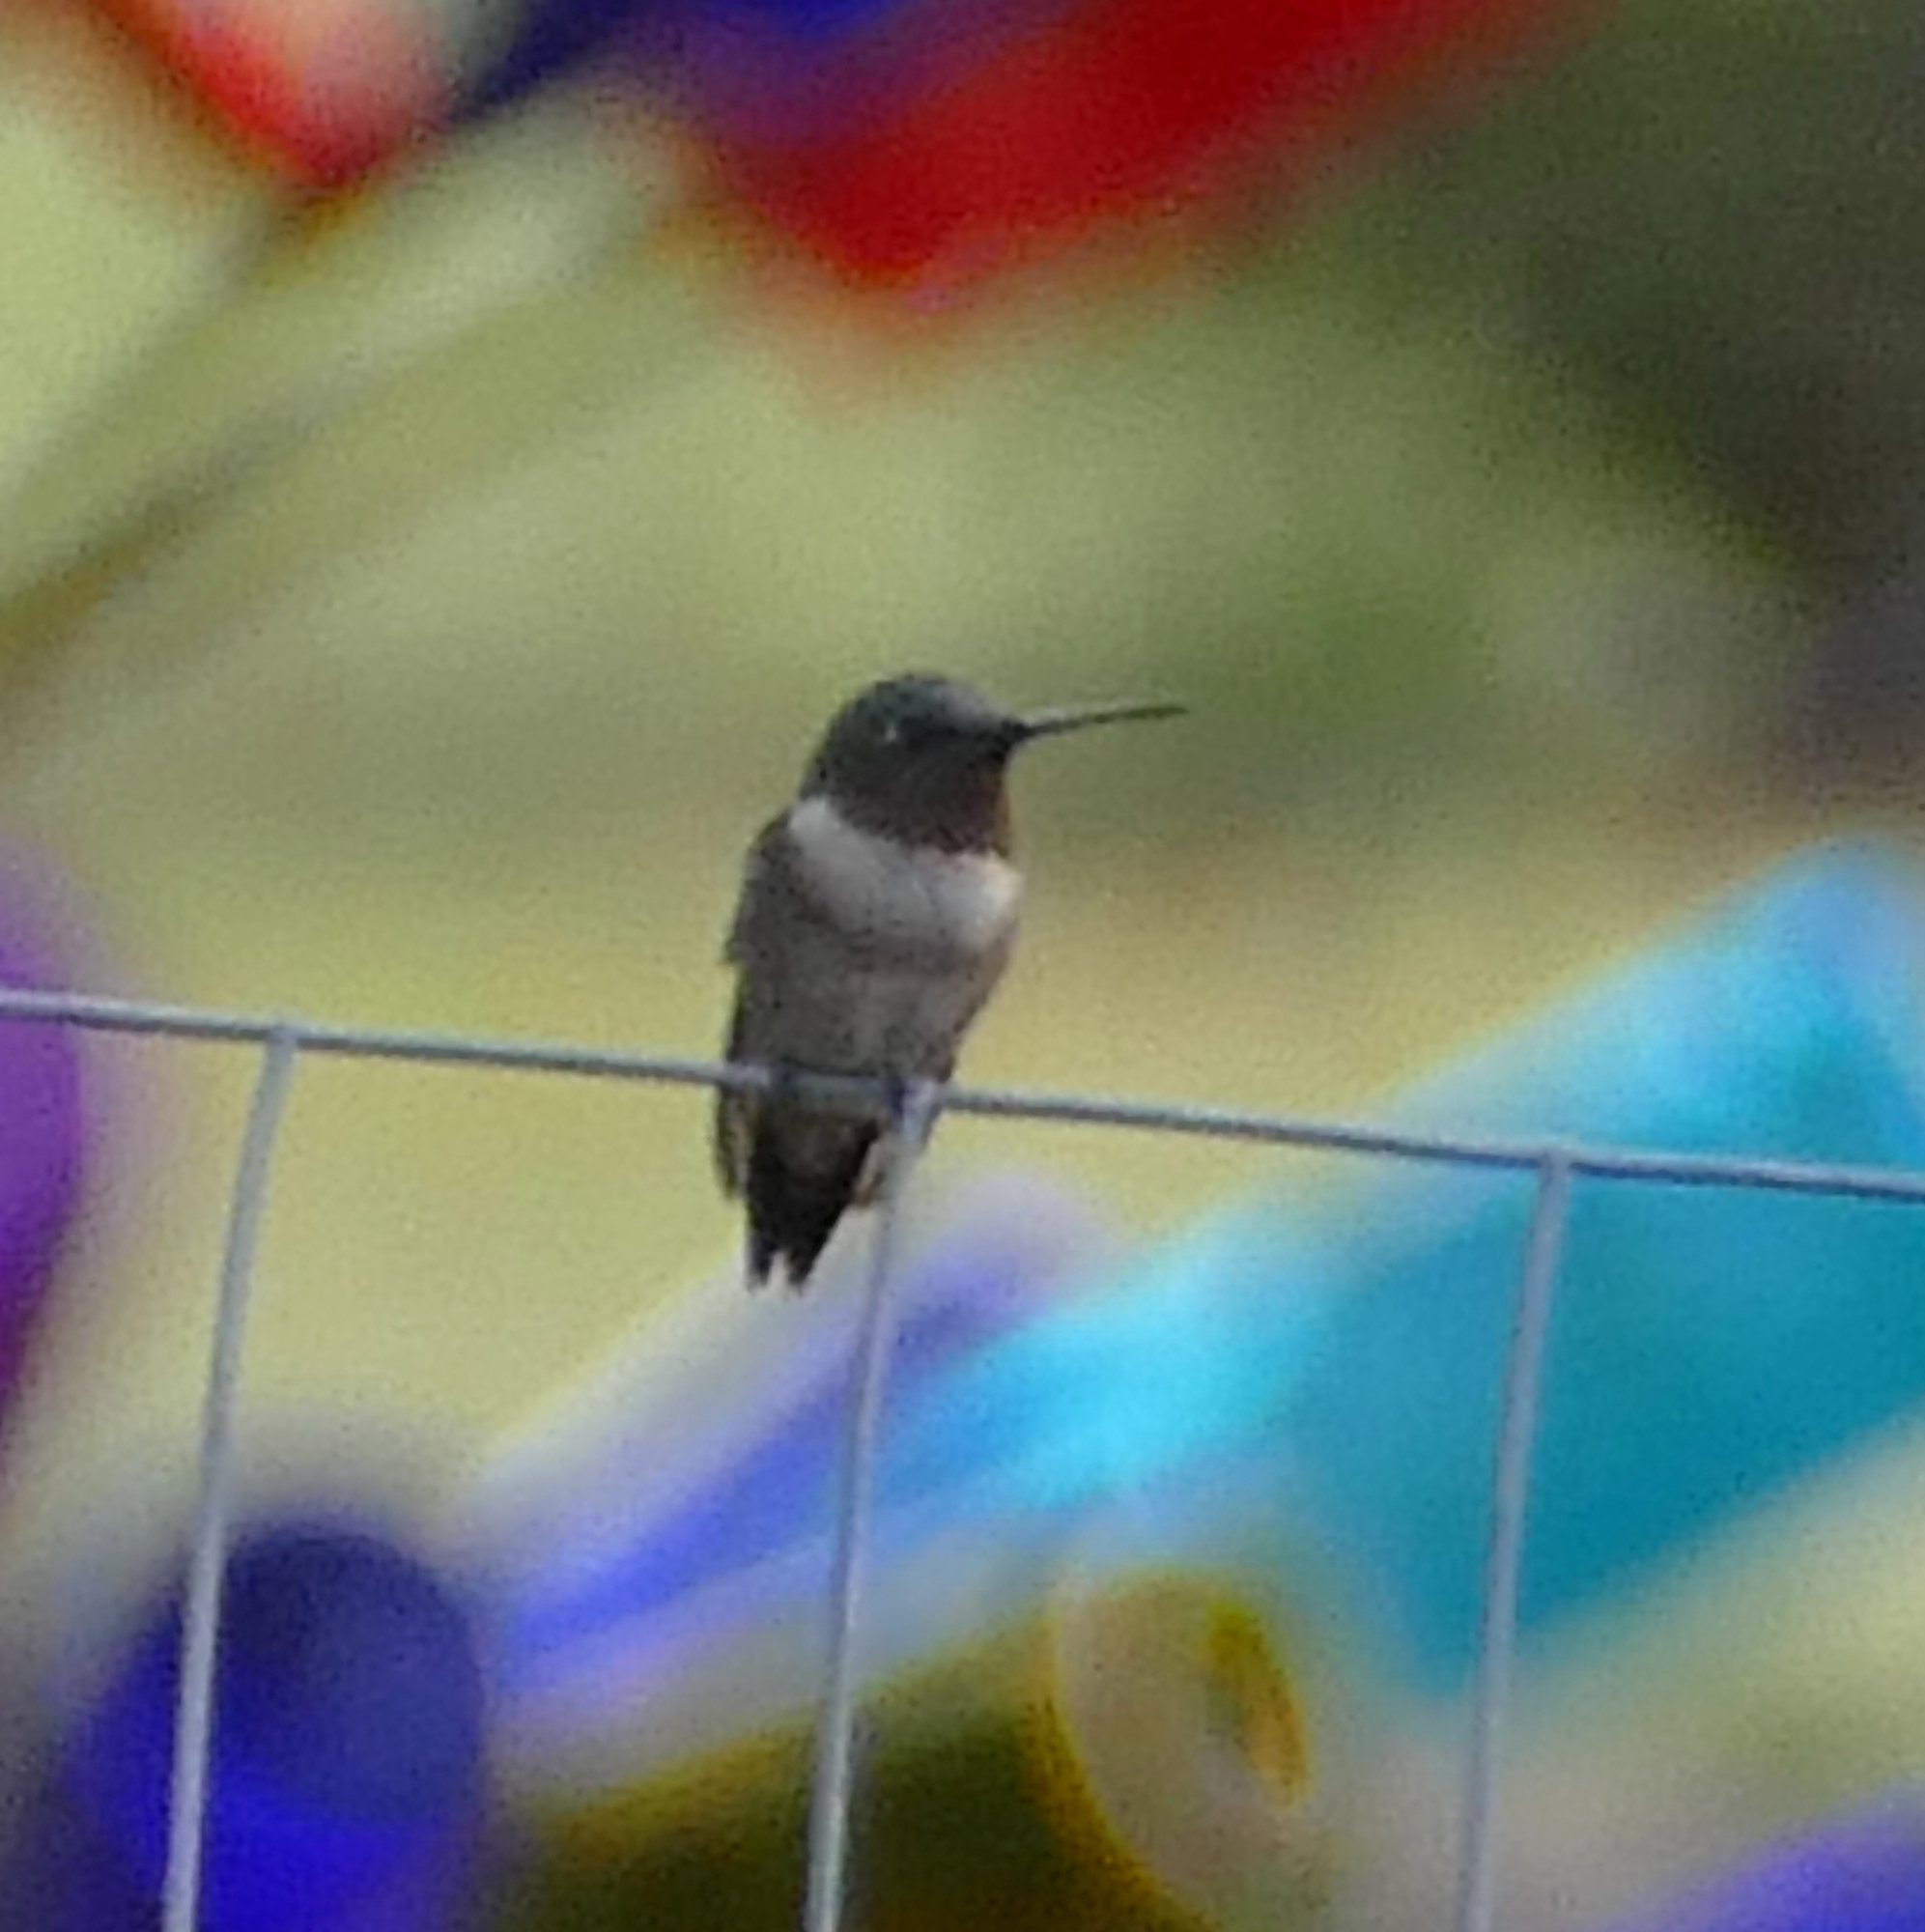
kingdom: Animalia
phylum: Chordata
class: Aves
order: Apodiformes
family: Trochilidae
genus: Archilochus
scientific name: Archilochus colubris
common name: Ruby-throated hummingbird
